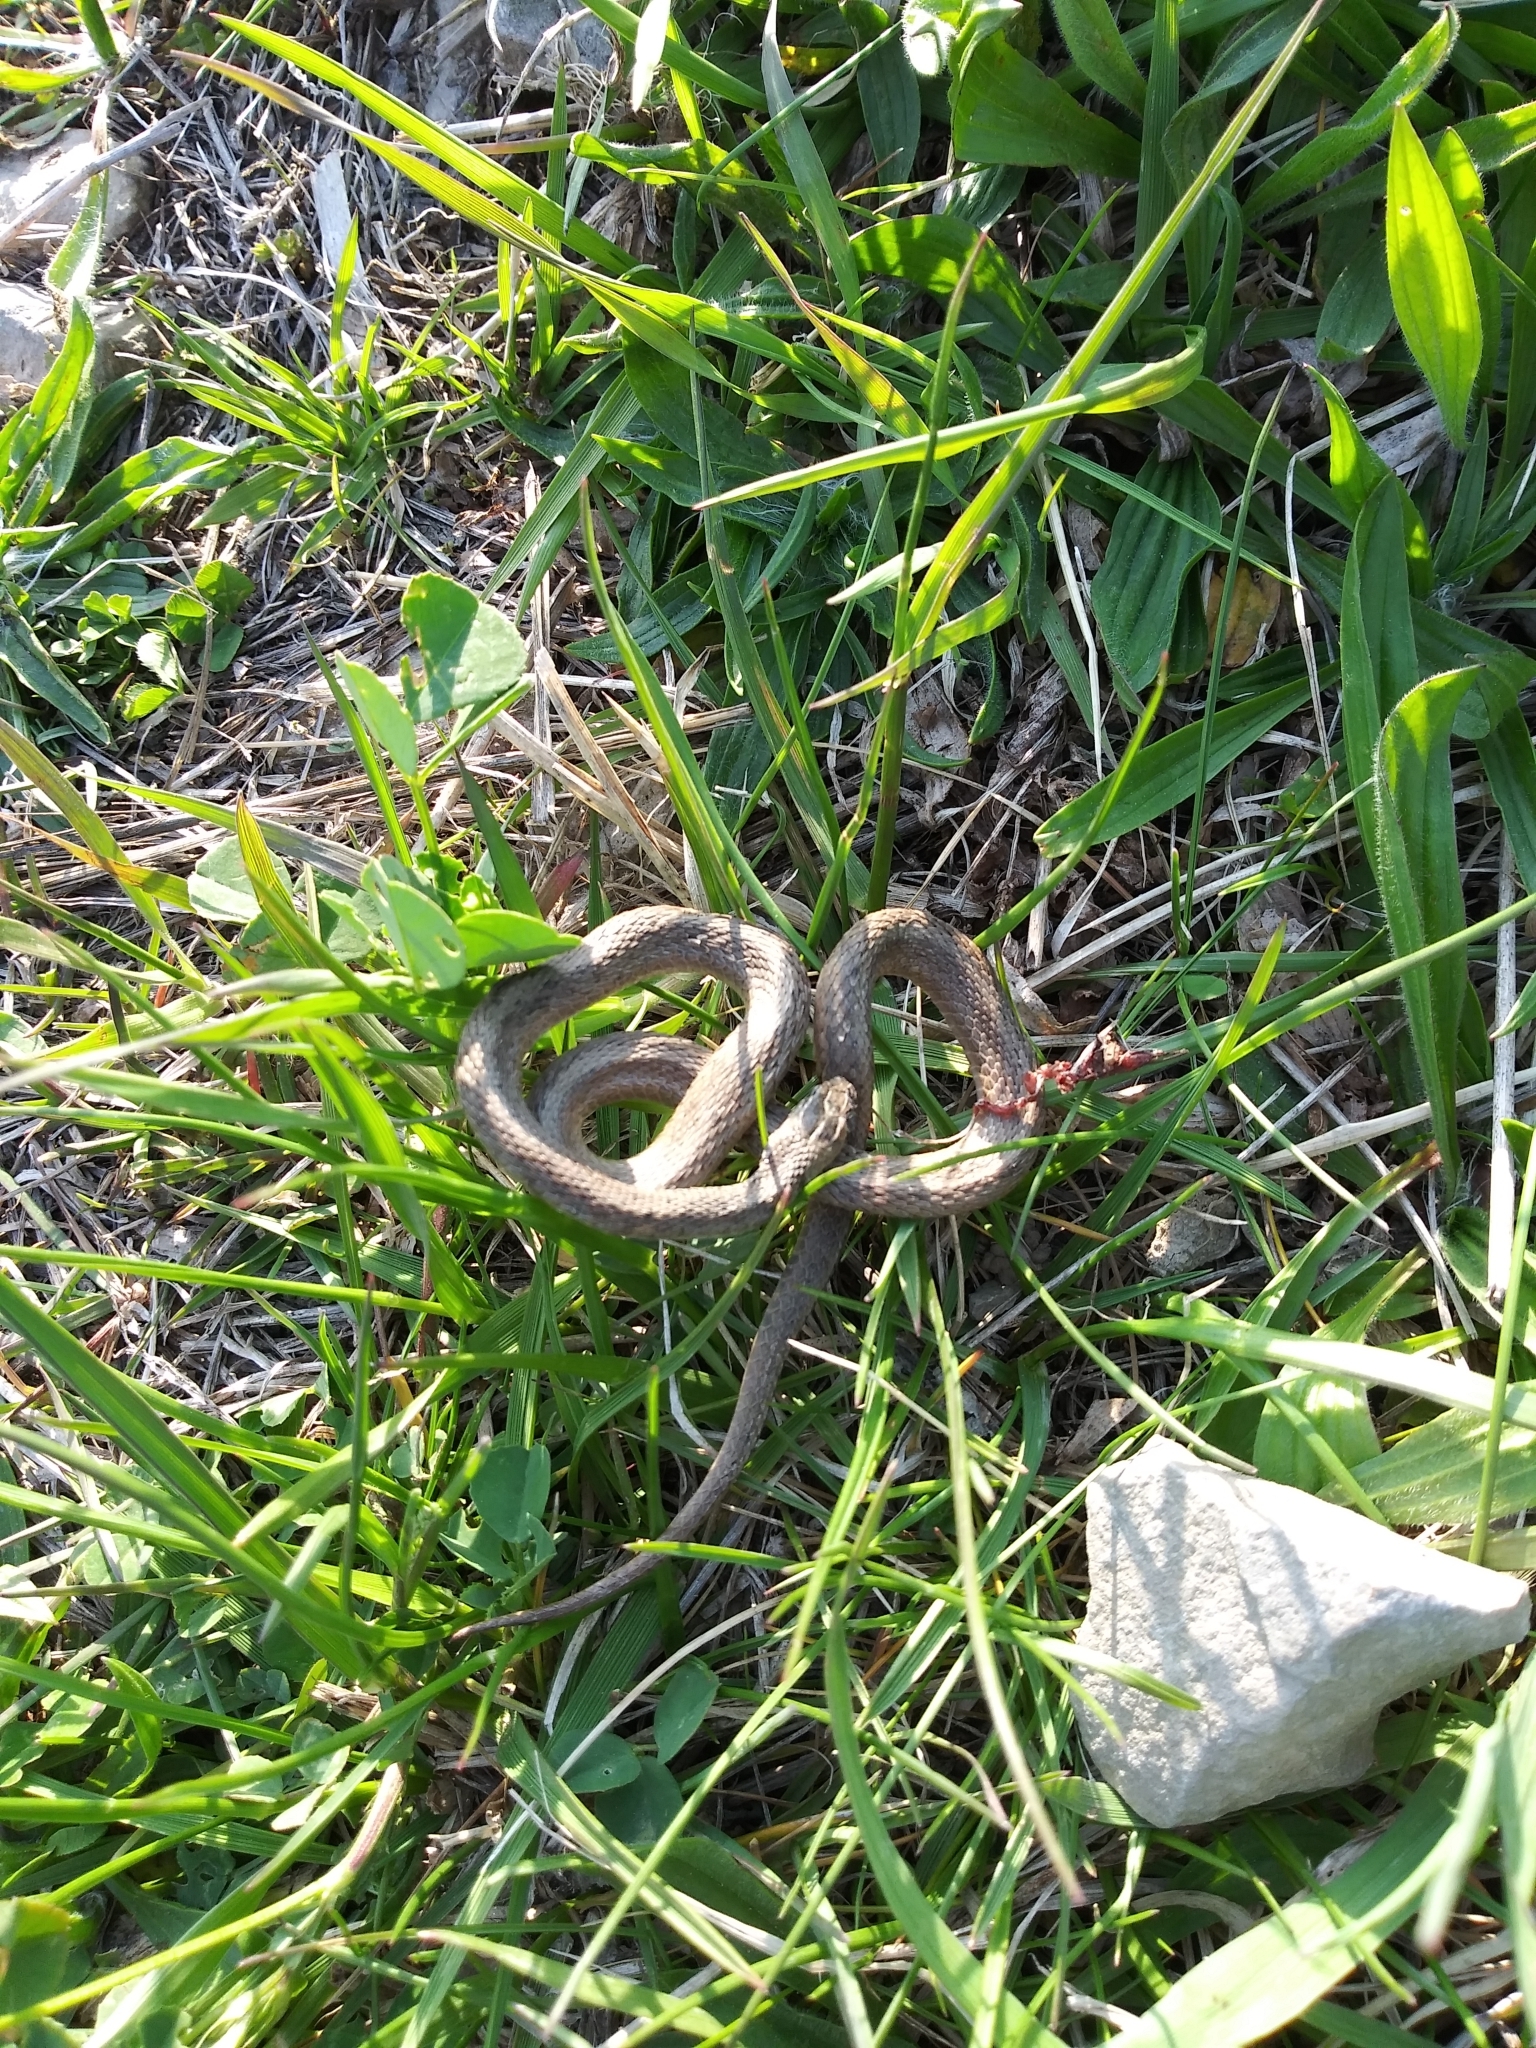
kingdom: Animalia
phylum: Chordata
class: Squamata
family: Colubridae
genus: Storeria
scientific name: Storeria dekayi
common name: (dekay’s) brown snake
